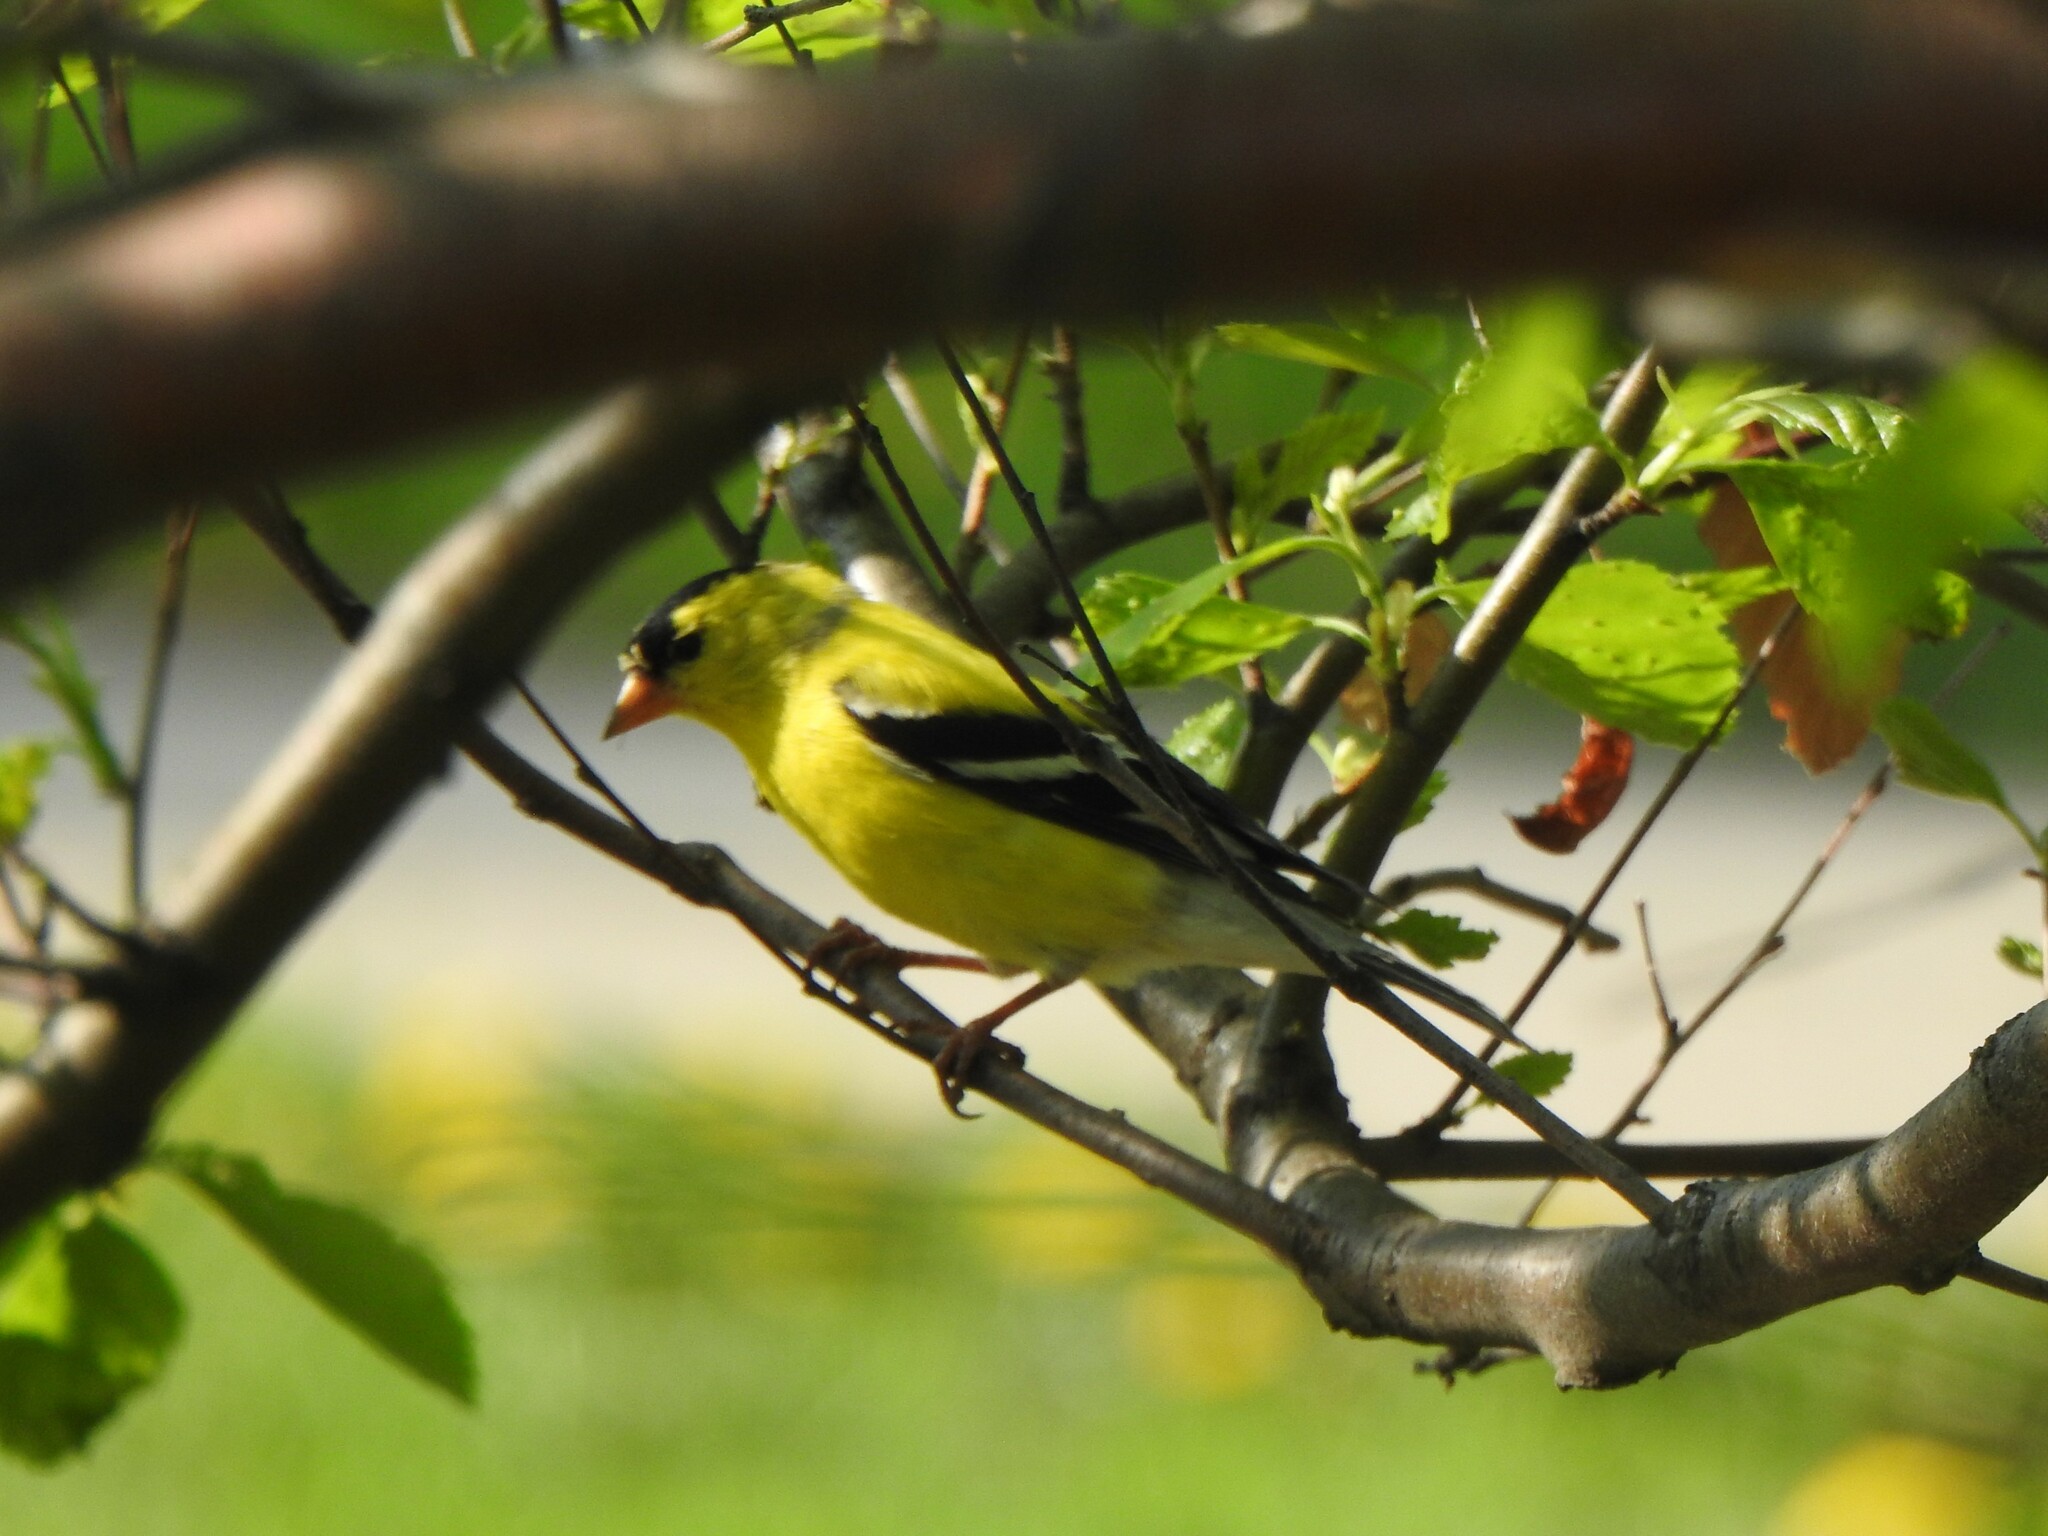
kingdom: Animalia
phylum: Chordata
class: Aves
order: Passeriformes
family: Fringillidae
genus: Spinus
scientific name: Spinus tristis
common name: American goldfinch
